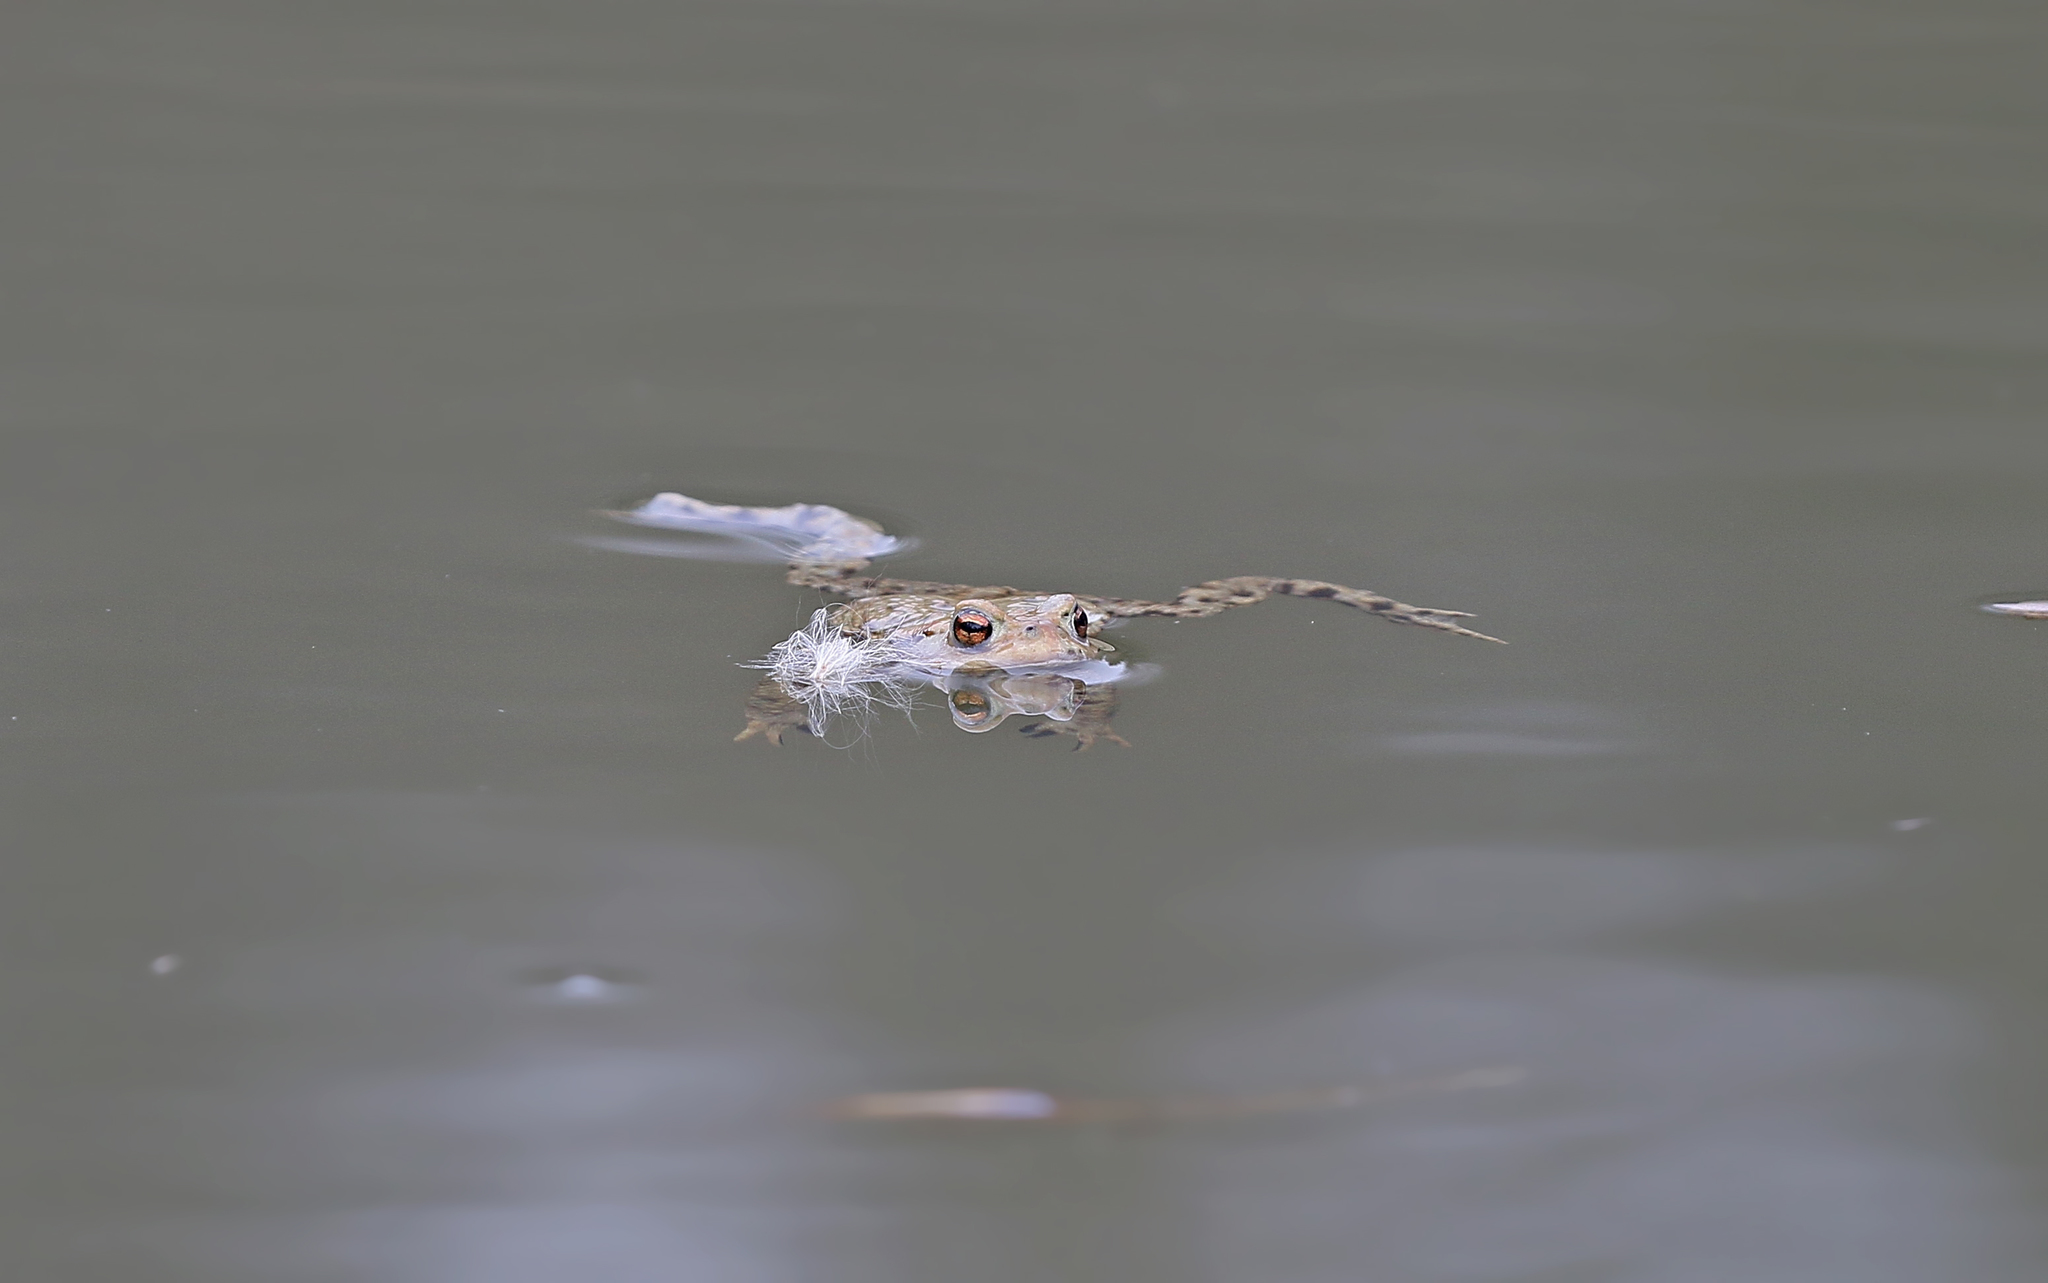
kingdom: Animalia
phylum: Chordata
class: Amphibia
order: Anura
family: Bufonidae
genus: Bufo
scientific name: Bufo bufo
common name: Common toad
